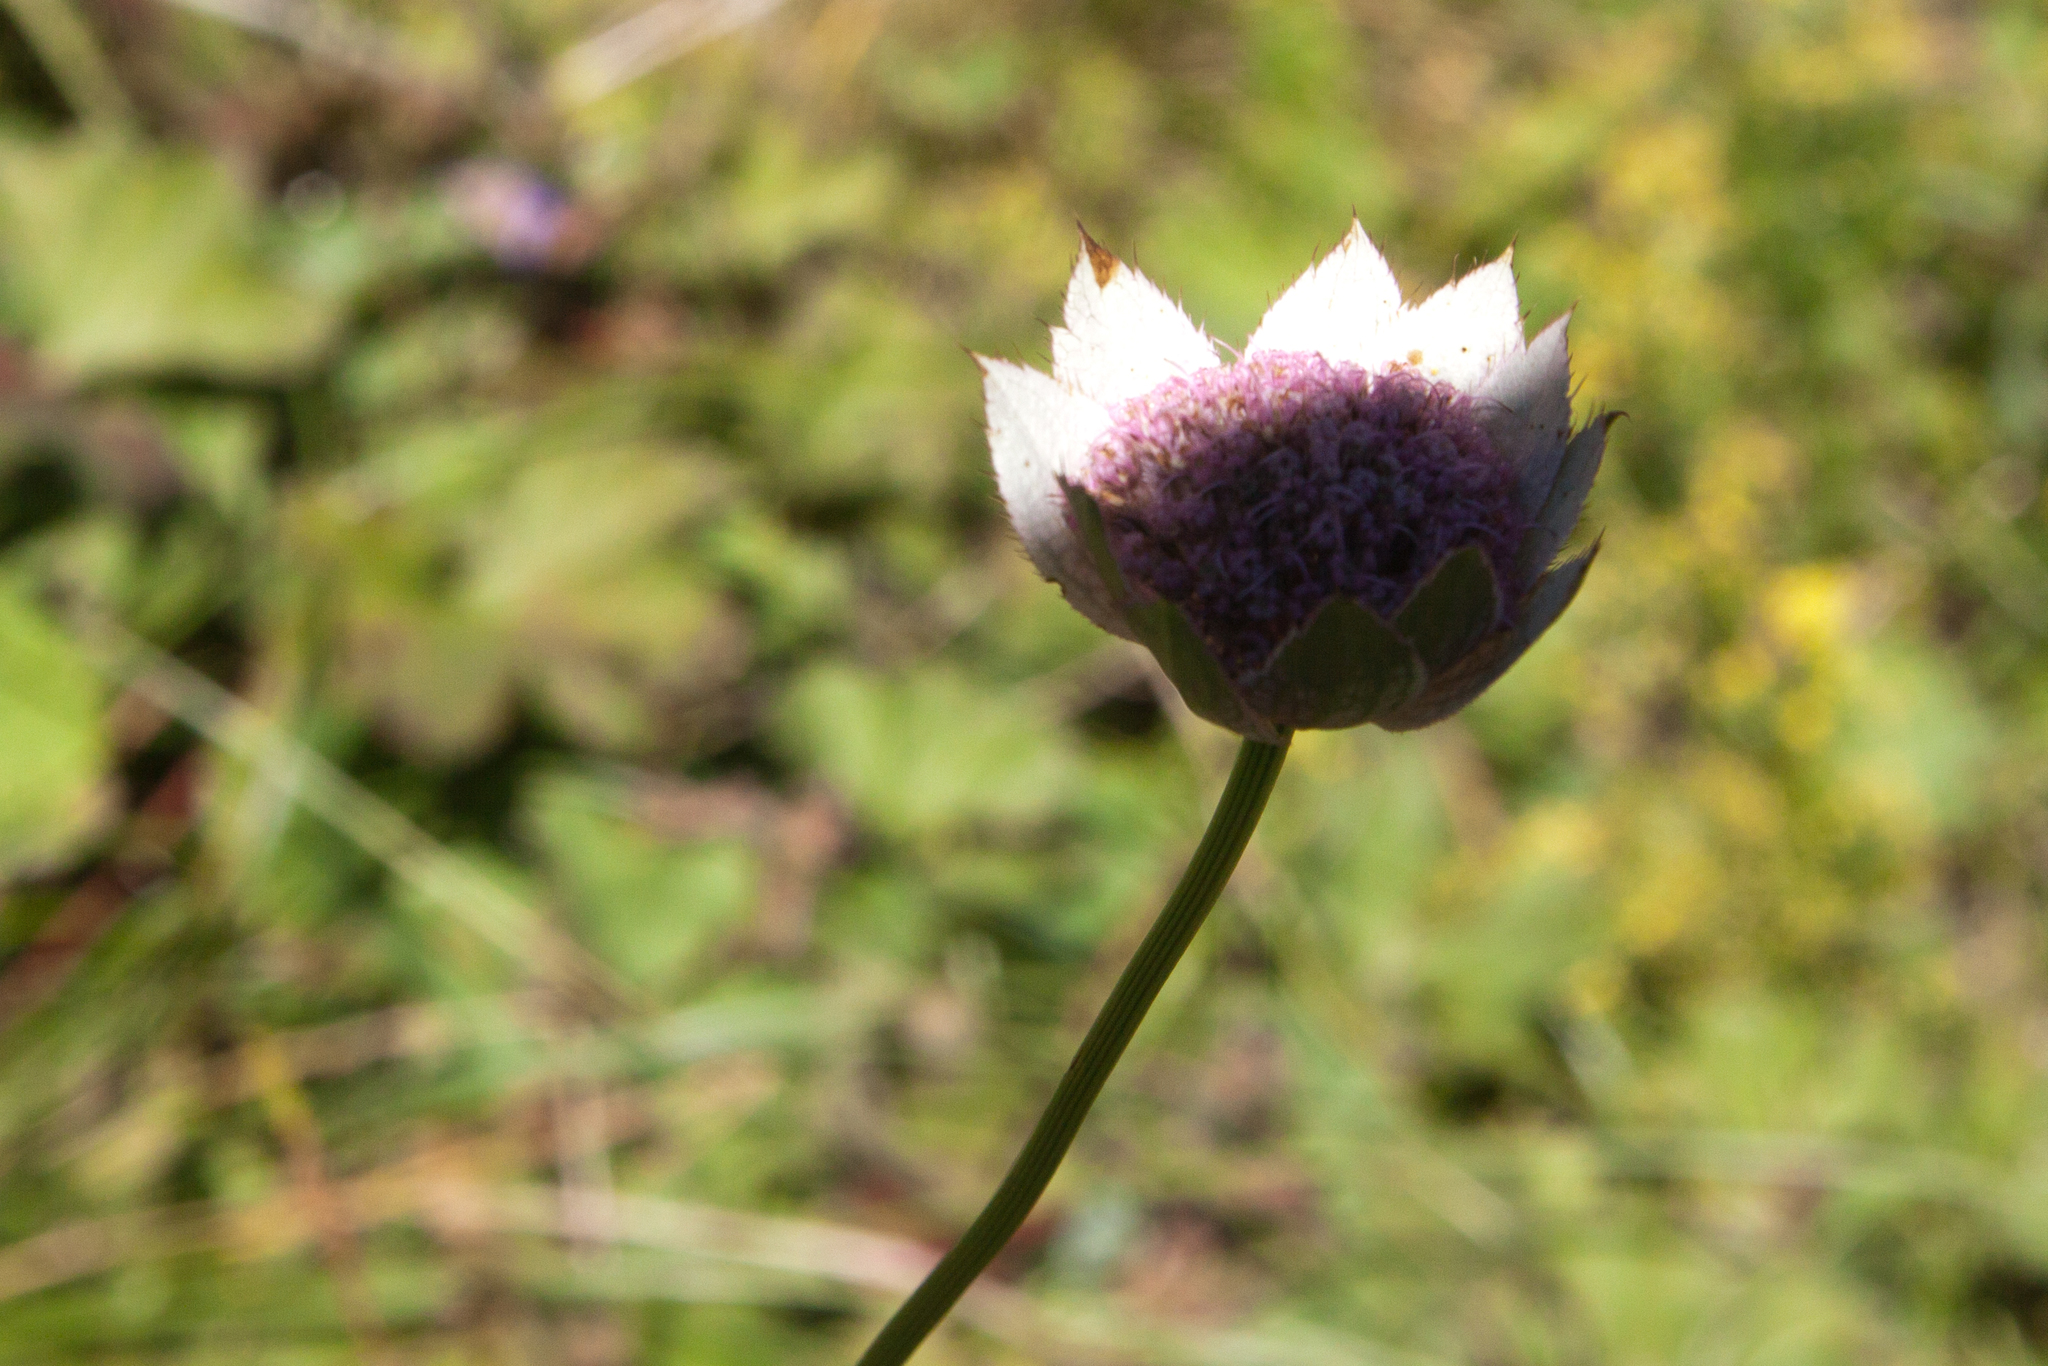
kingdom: Plantae
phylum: Tracheophyta
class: Magnoliopsida
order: Apiales
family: Apiaceae
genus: Astrantia
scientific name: Astrantia maxima
